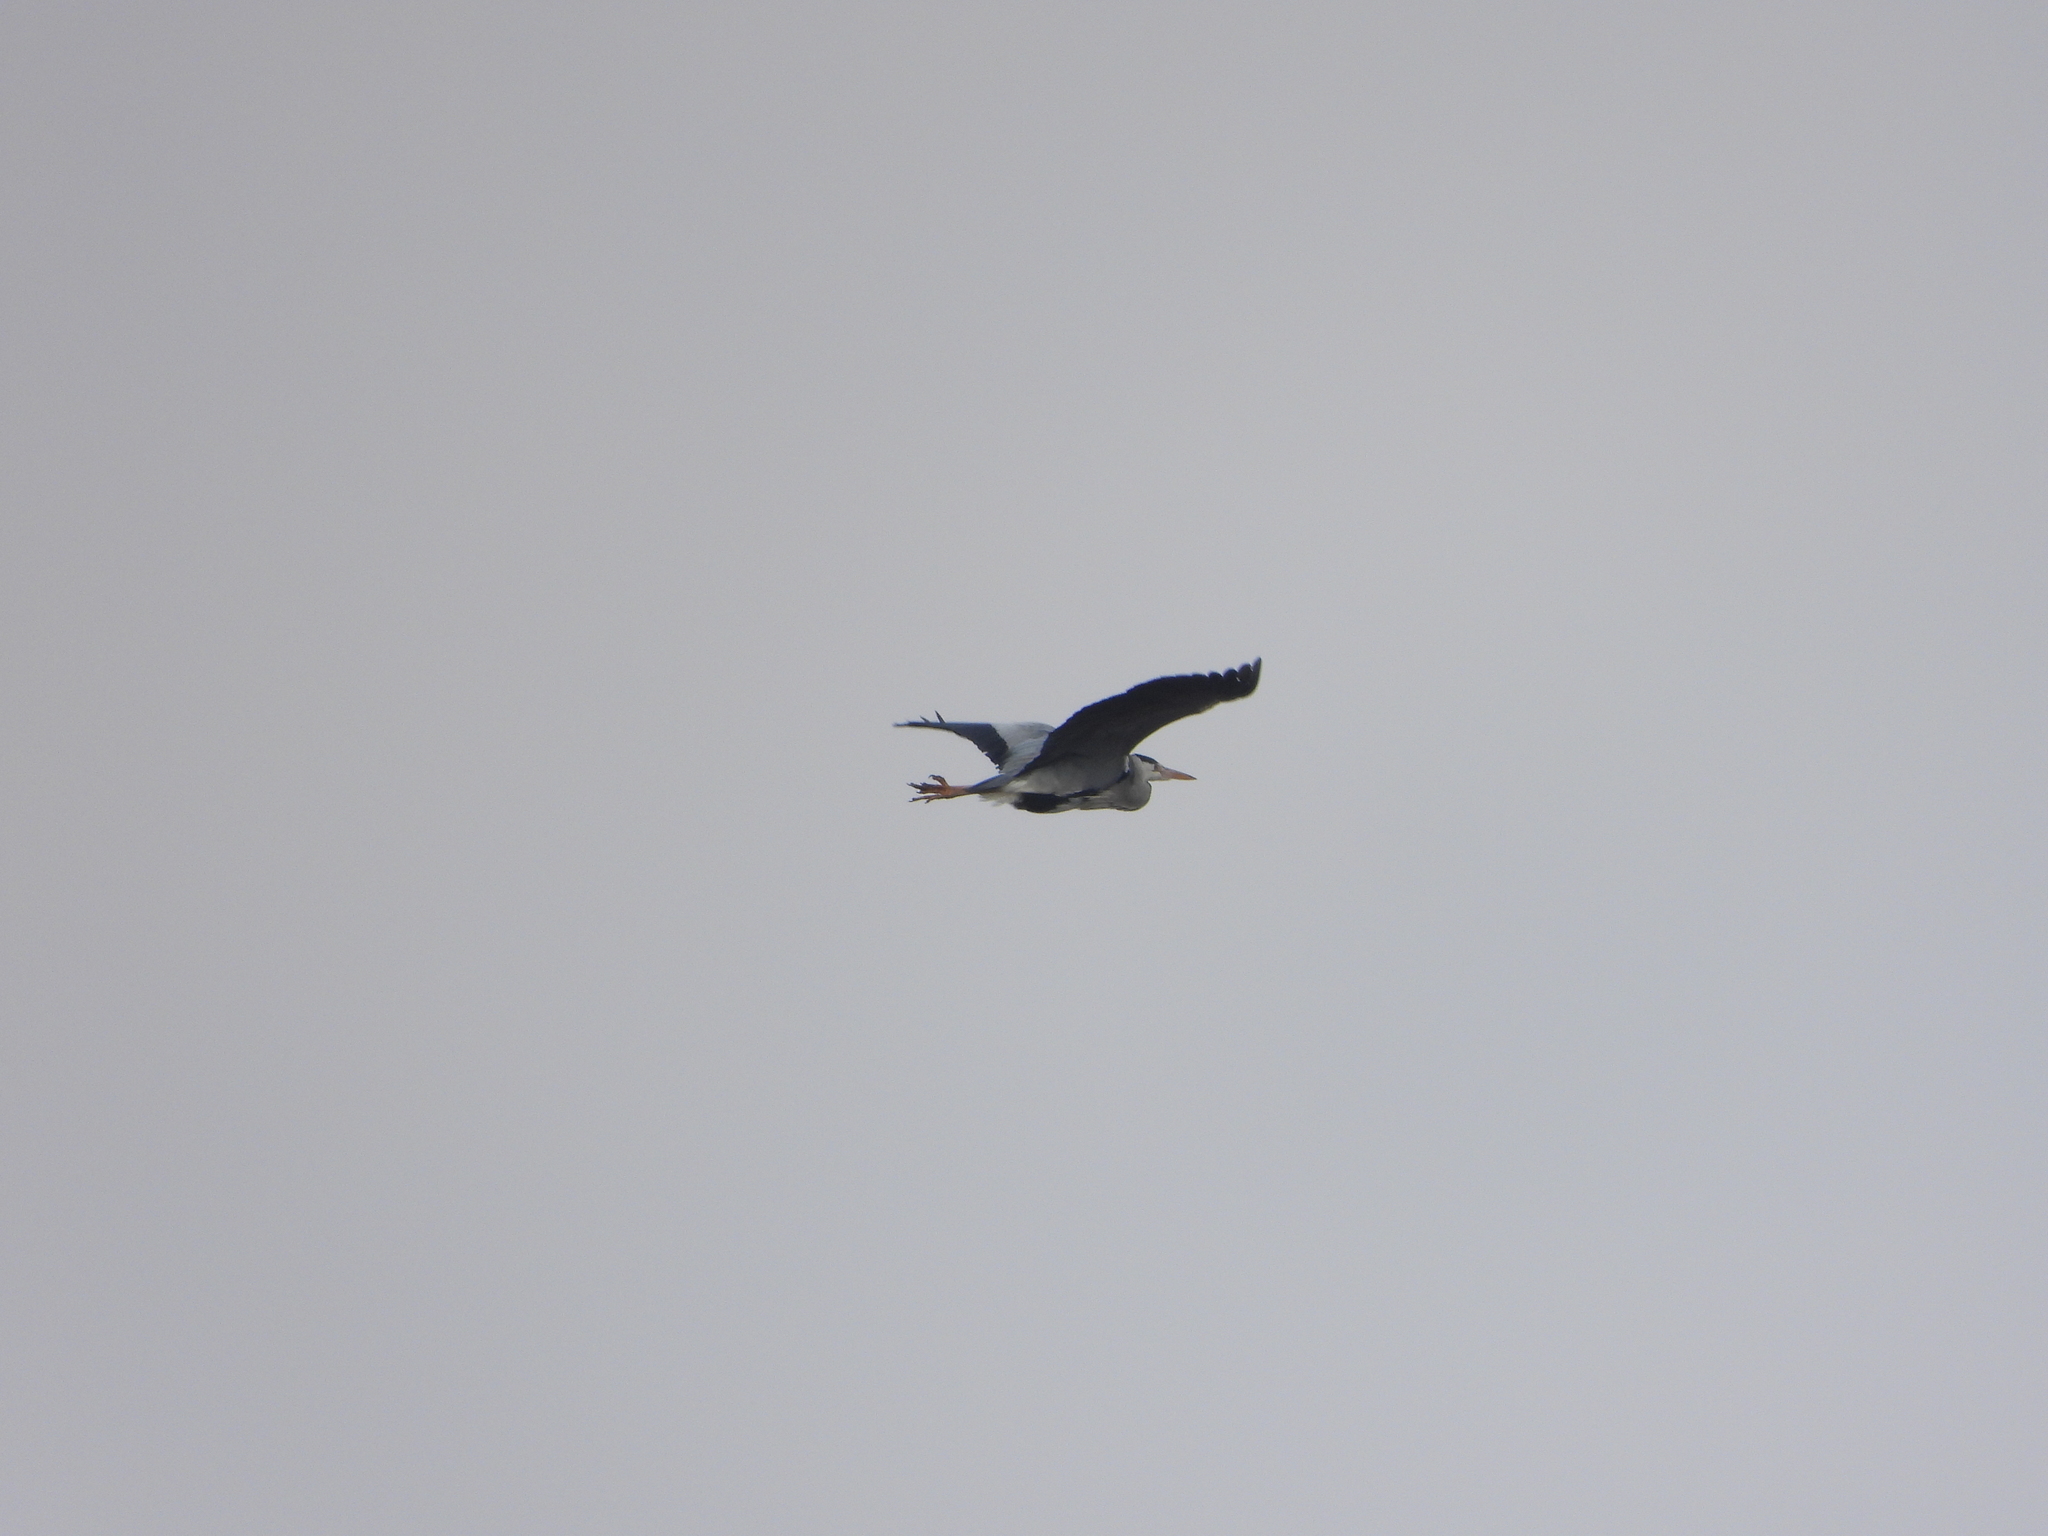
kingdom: Animalia
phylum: Chordata
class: Aves
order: Pelecaniformes
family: Ardeidae
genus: Ardea
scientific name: Ardea cinerea
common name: Grey heron
